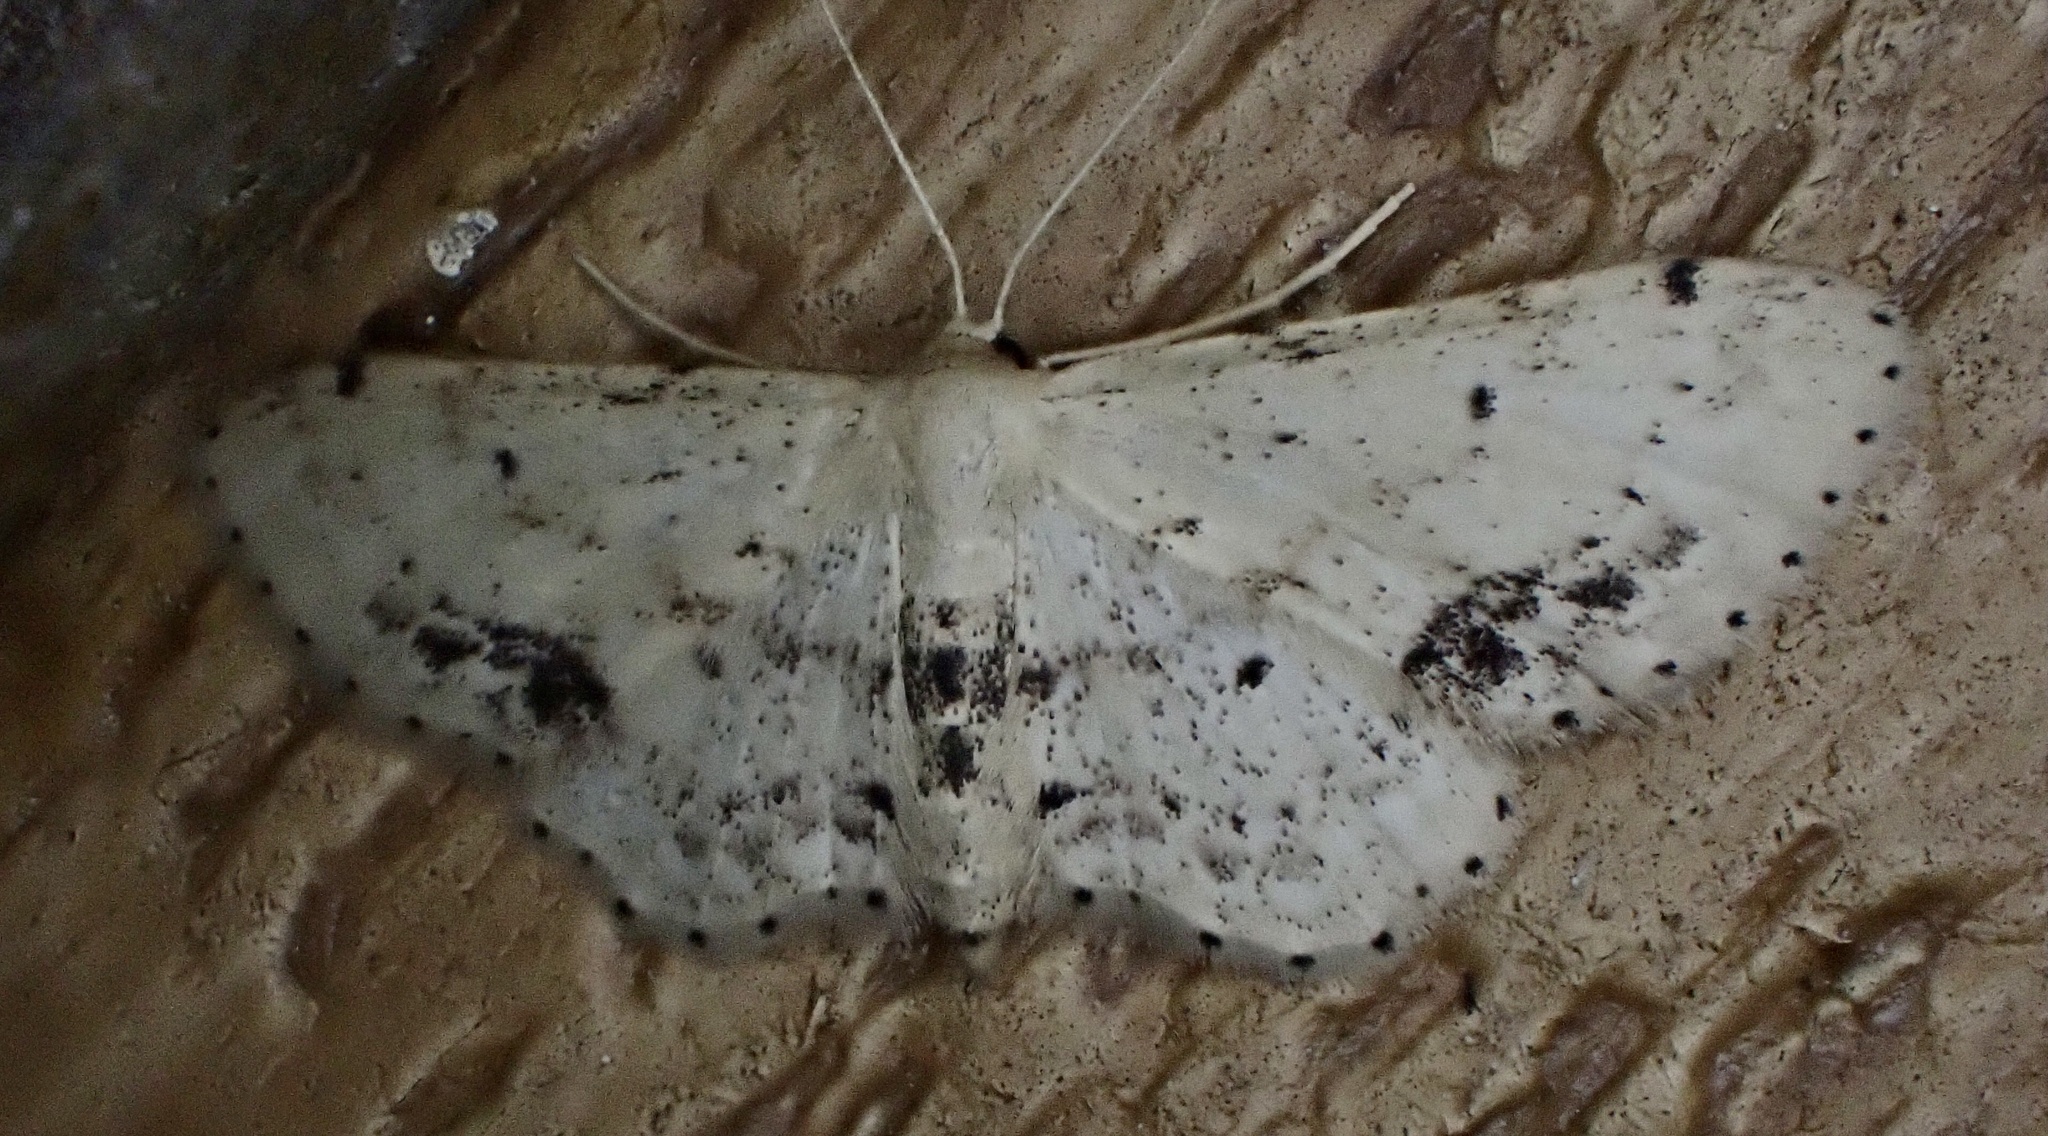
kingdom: Animalia
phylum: Arthropoda
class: Insecta
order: Lepidoptera
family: Geometridae
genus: Idaea
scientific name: Idaea dimidiata
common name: Single-dotted wave
